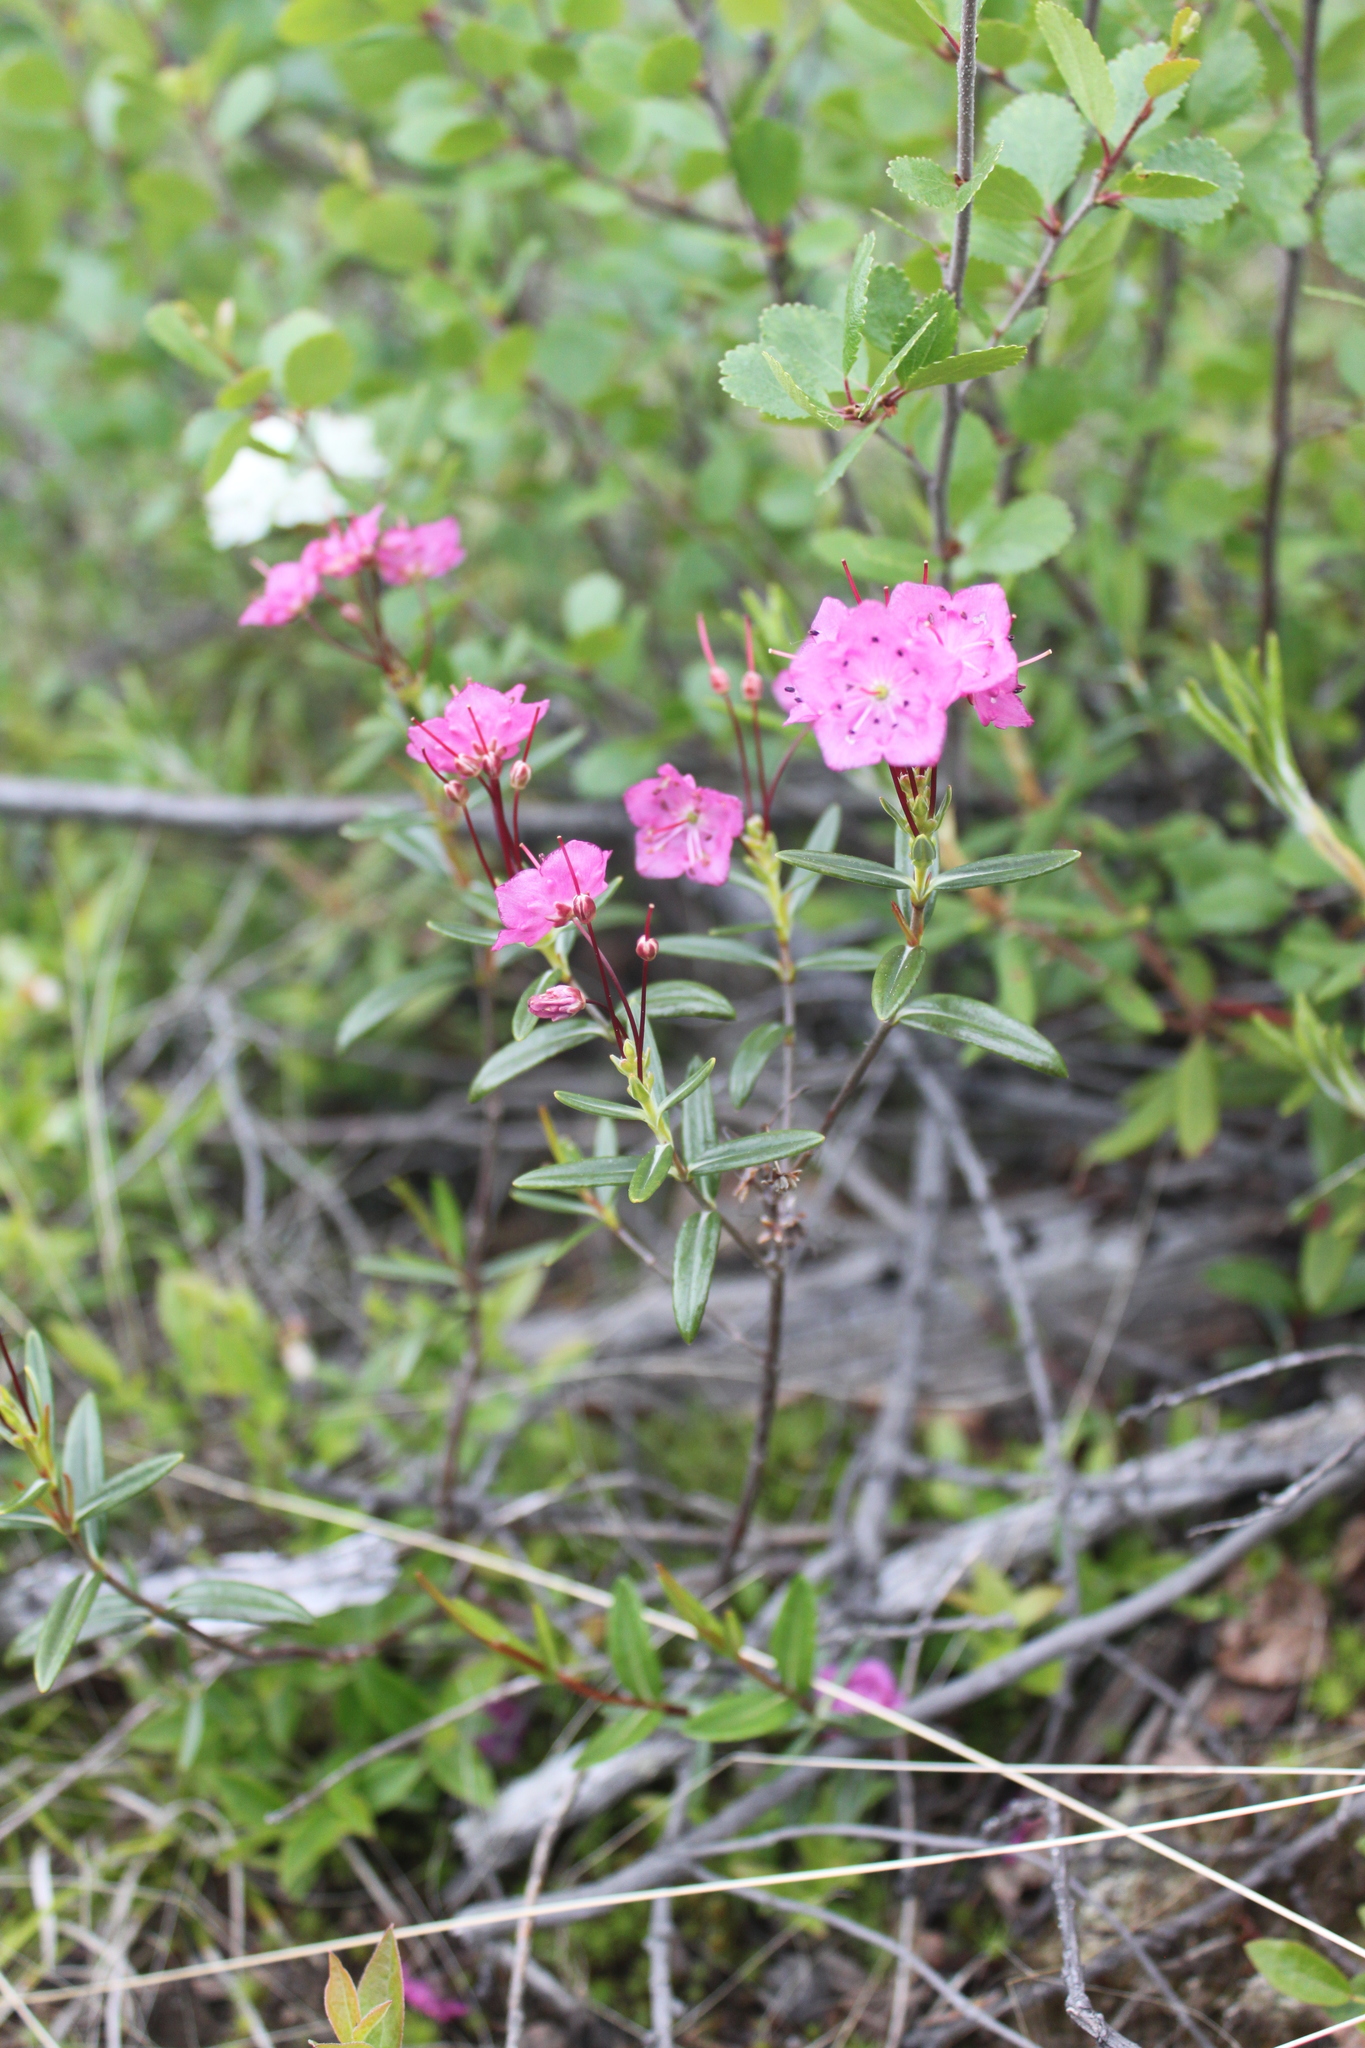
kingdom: Plantae
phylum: Tracheophyta
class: Magnoliopsida
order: Ericales
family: Ericaceae
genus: Kalmia
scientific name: Kalmia polifolia
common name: Bog-laurel
